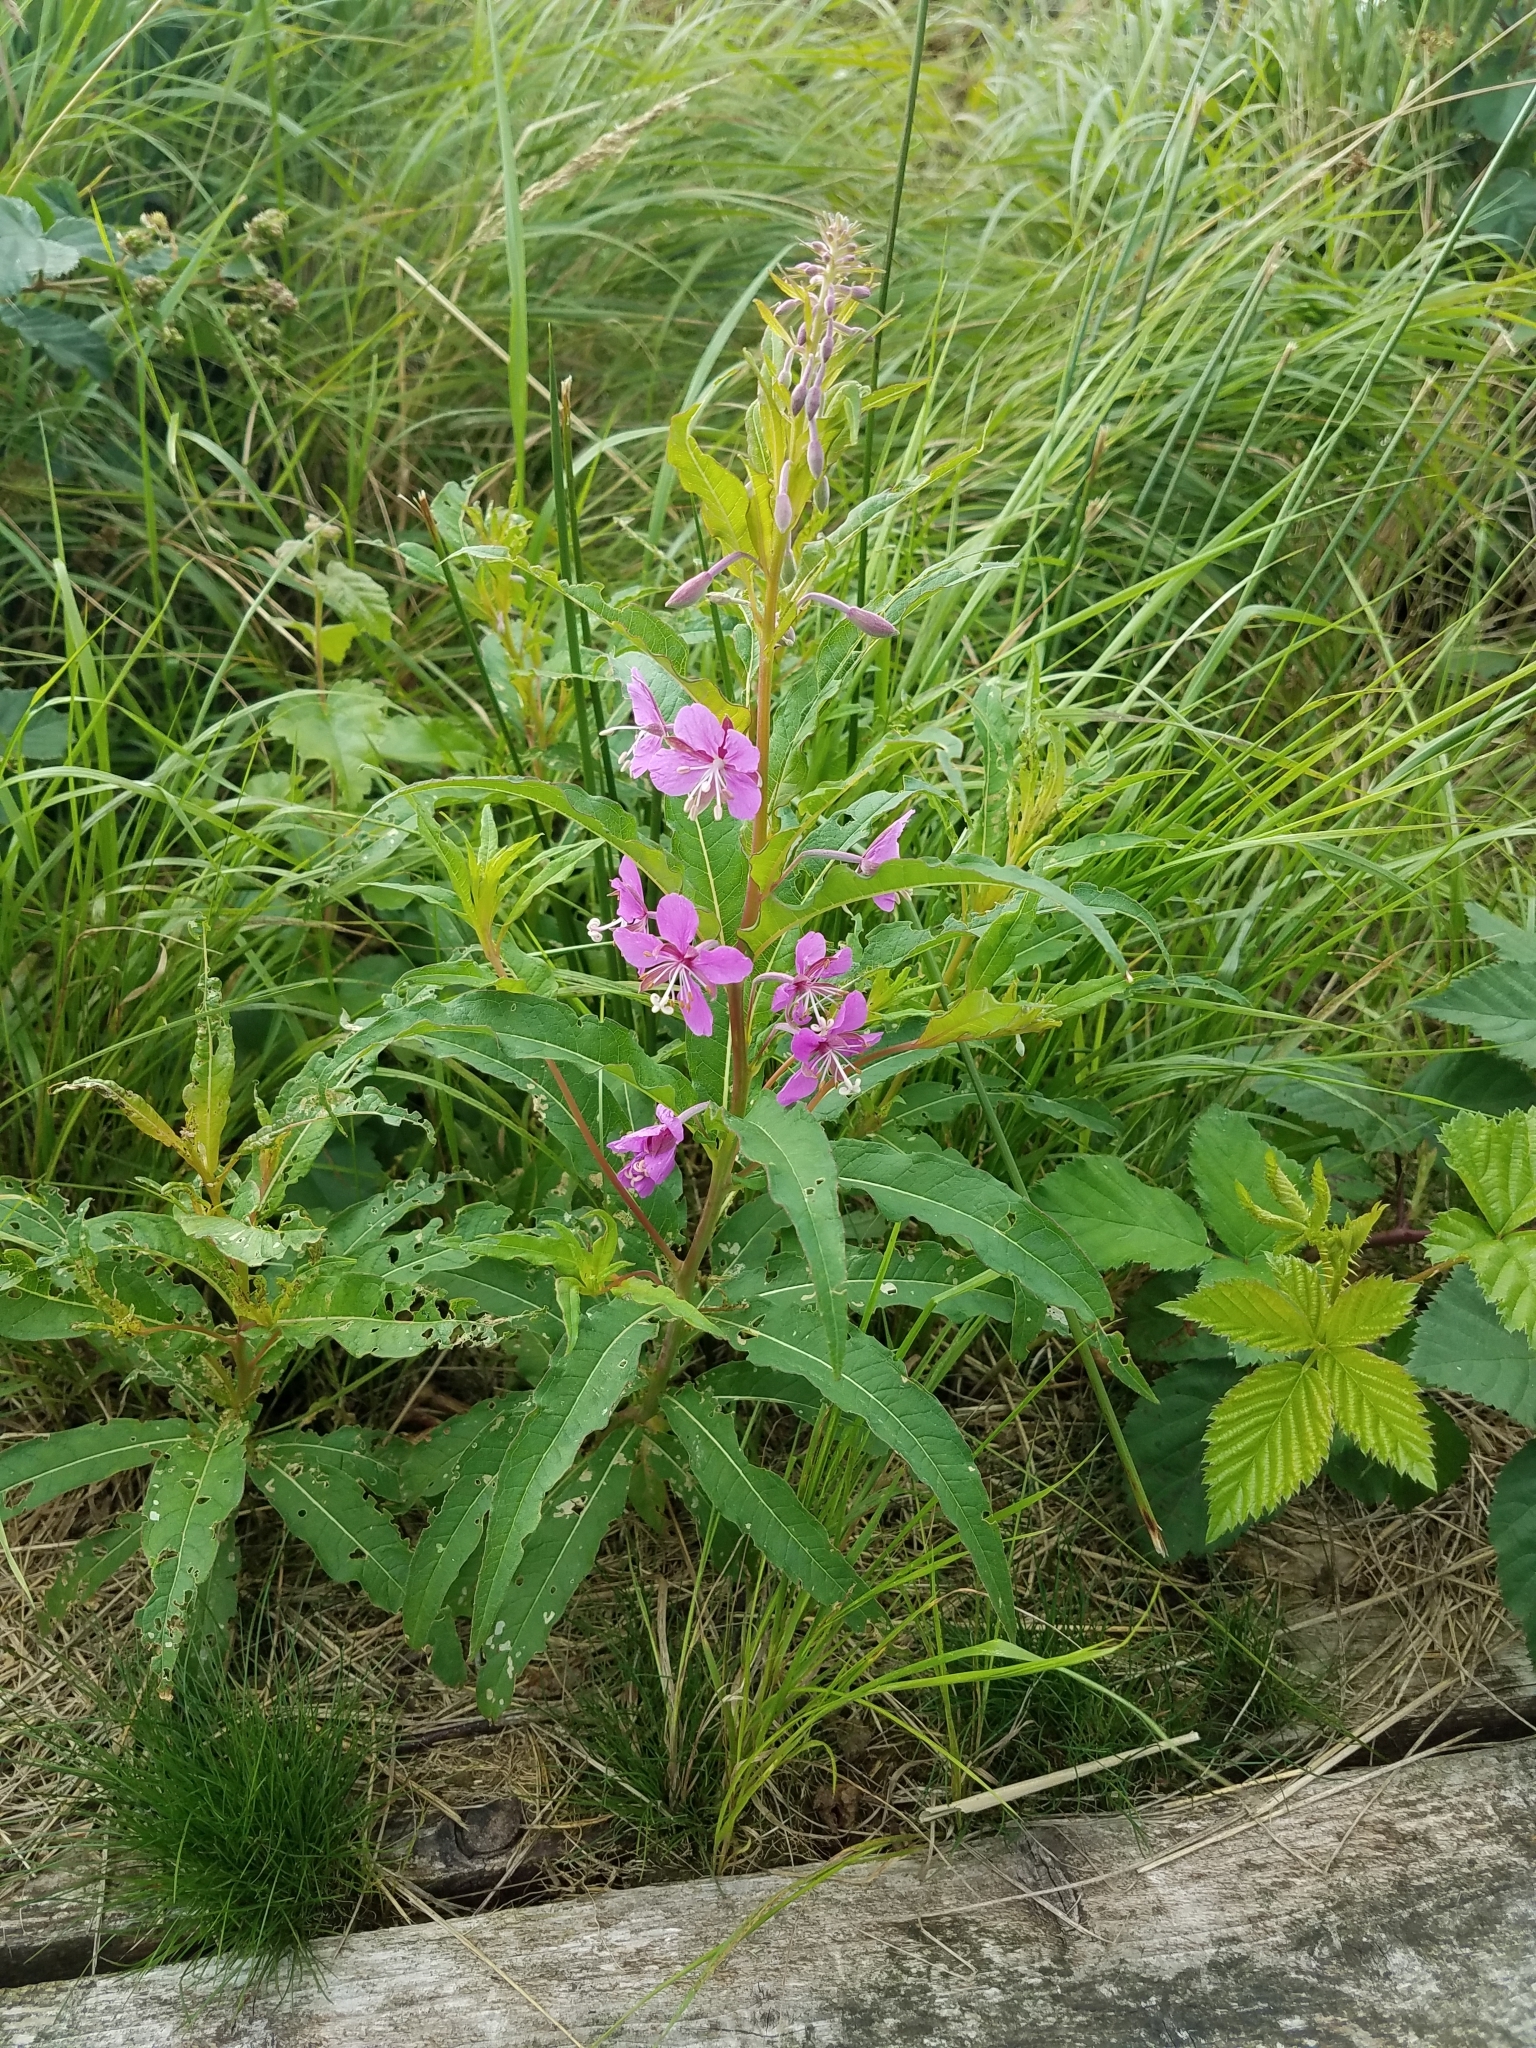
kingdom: Plantae
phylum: Tracheophyta
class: Magnoliopsida
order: Myrtales
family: Onagraceae
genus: Chamaenerion
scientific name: Chamaenerion angustifolium
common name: Fireweed
